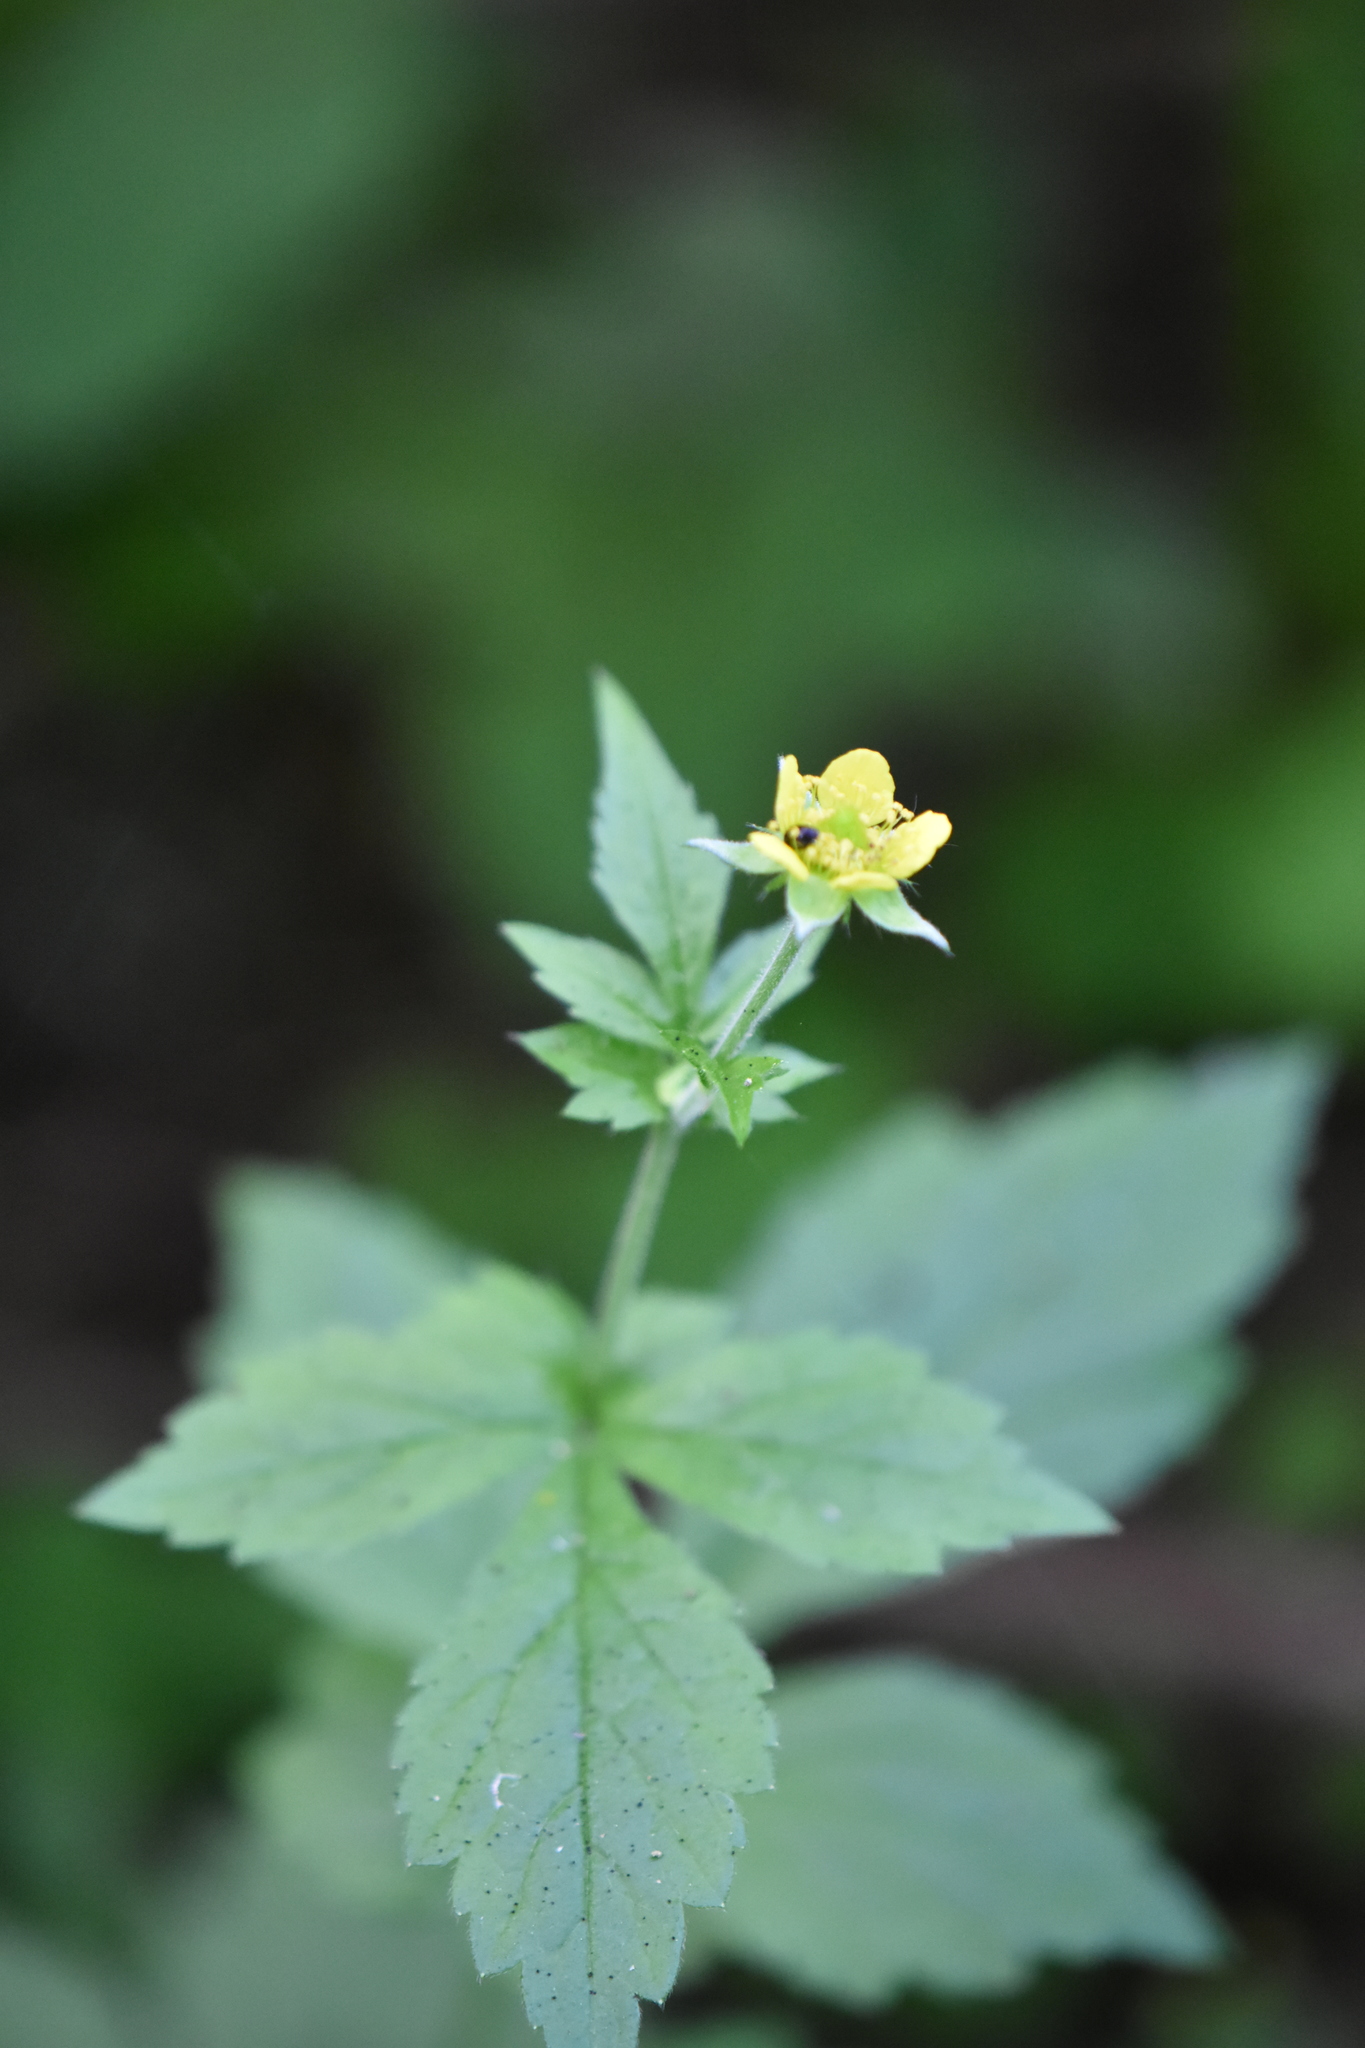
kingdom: Plantae
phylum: Tracheophyta
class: Magnoliopsida
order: Rosales
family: Rosaceae
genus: Geum
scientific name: Geum urbanum
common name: Wood avens
